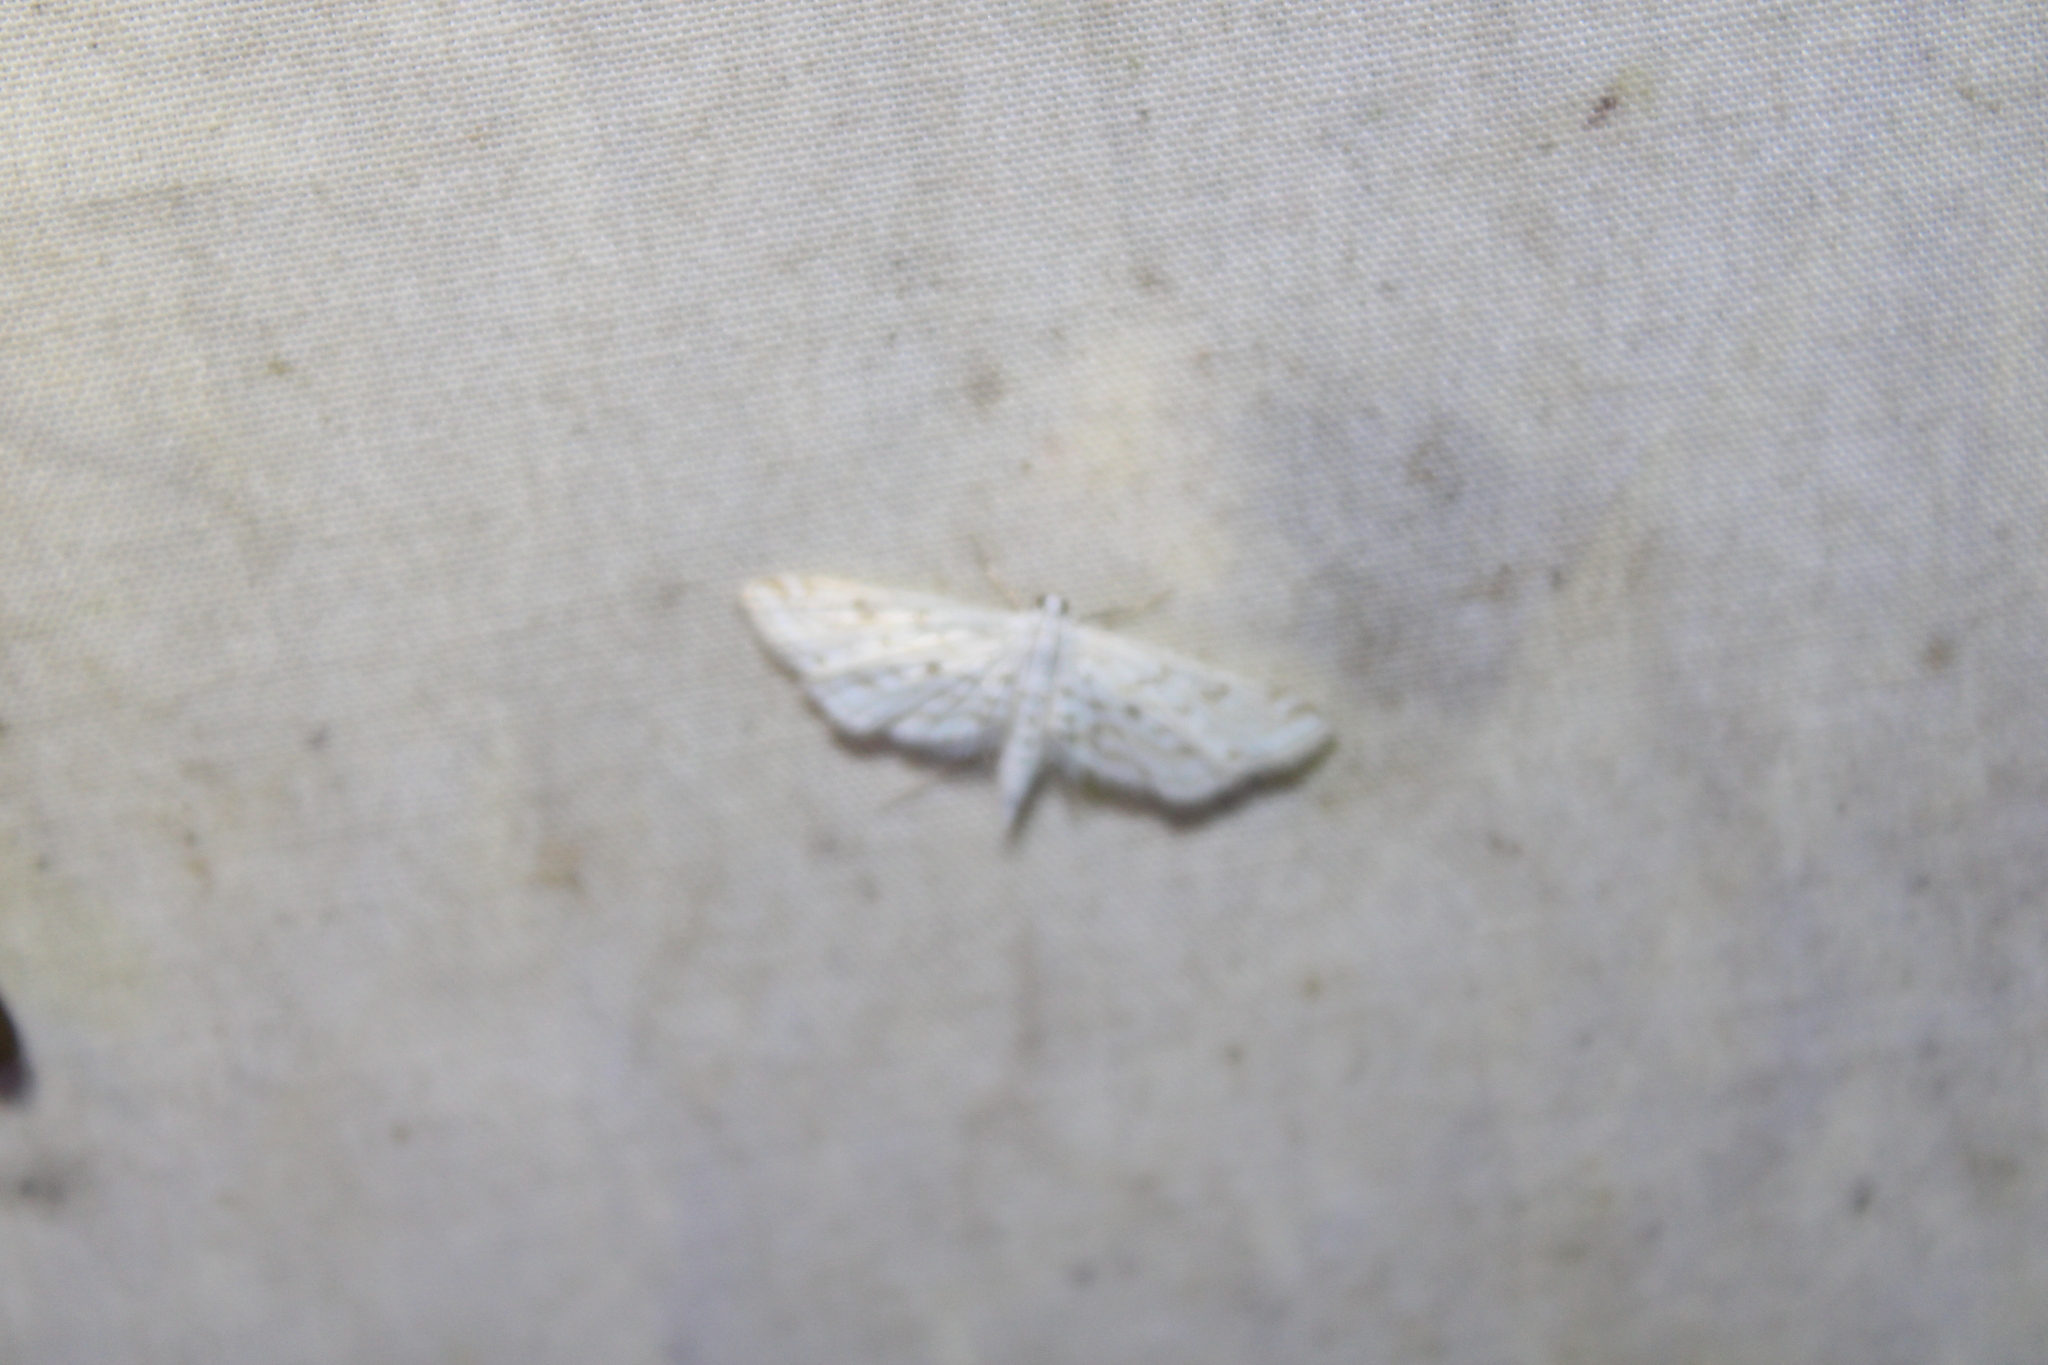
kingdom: Animalia
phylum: Arthropoda
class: Insecta
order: Lepidoptera
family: Crambidae
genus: Parapoynx
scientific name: Parapoynx allionealis
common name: Bladderwort casemaker
